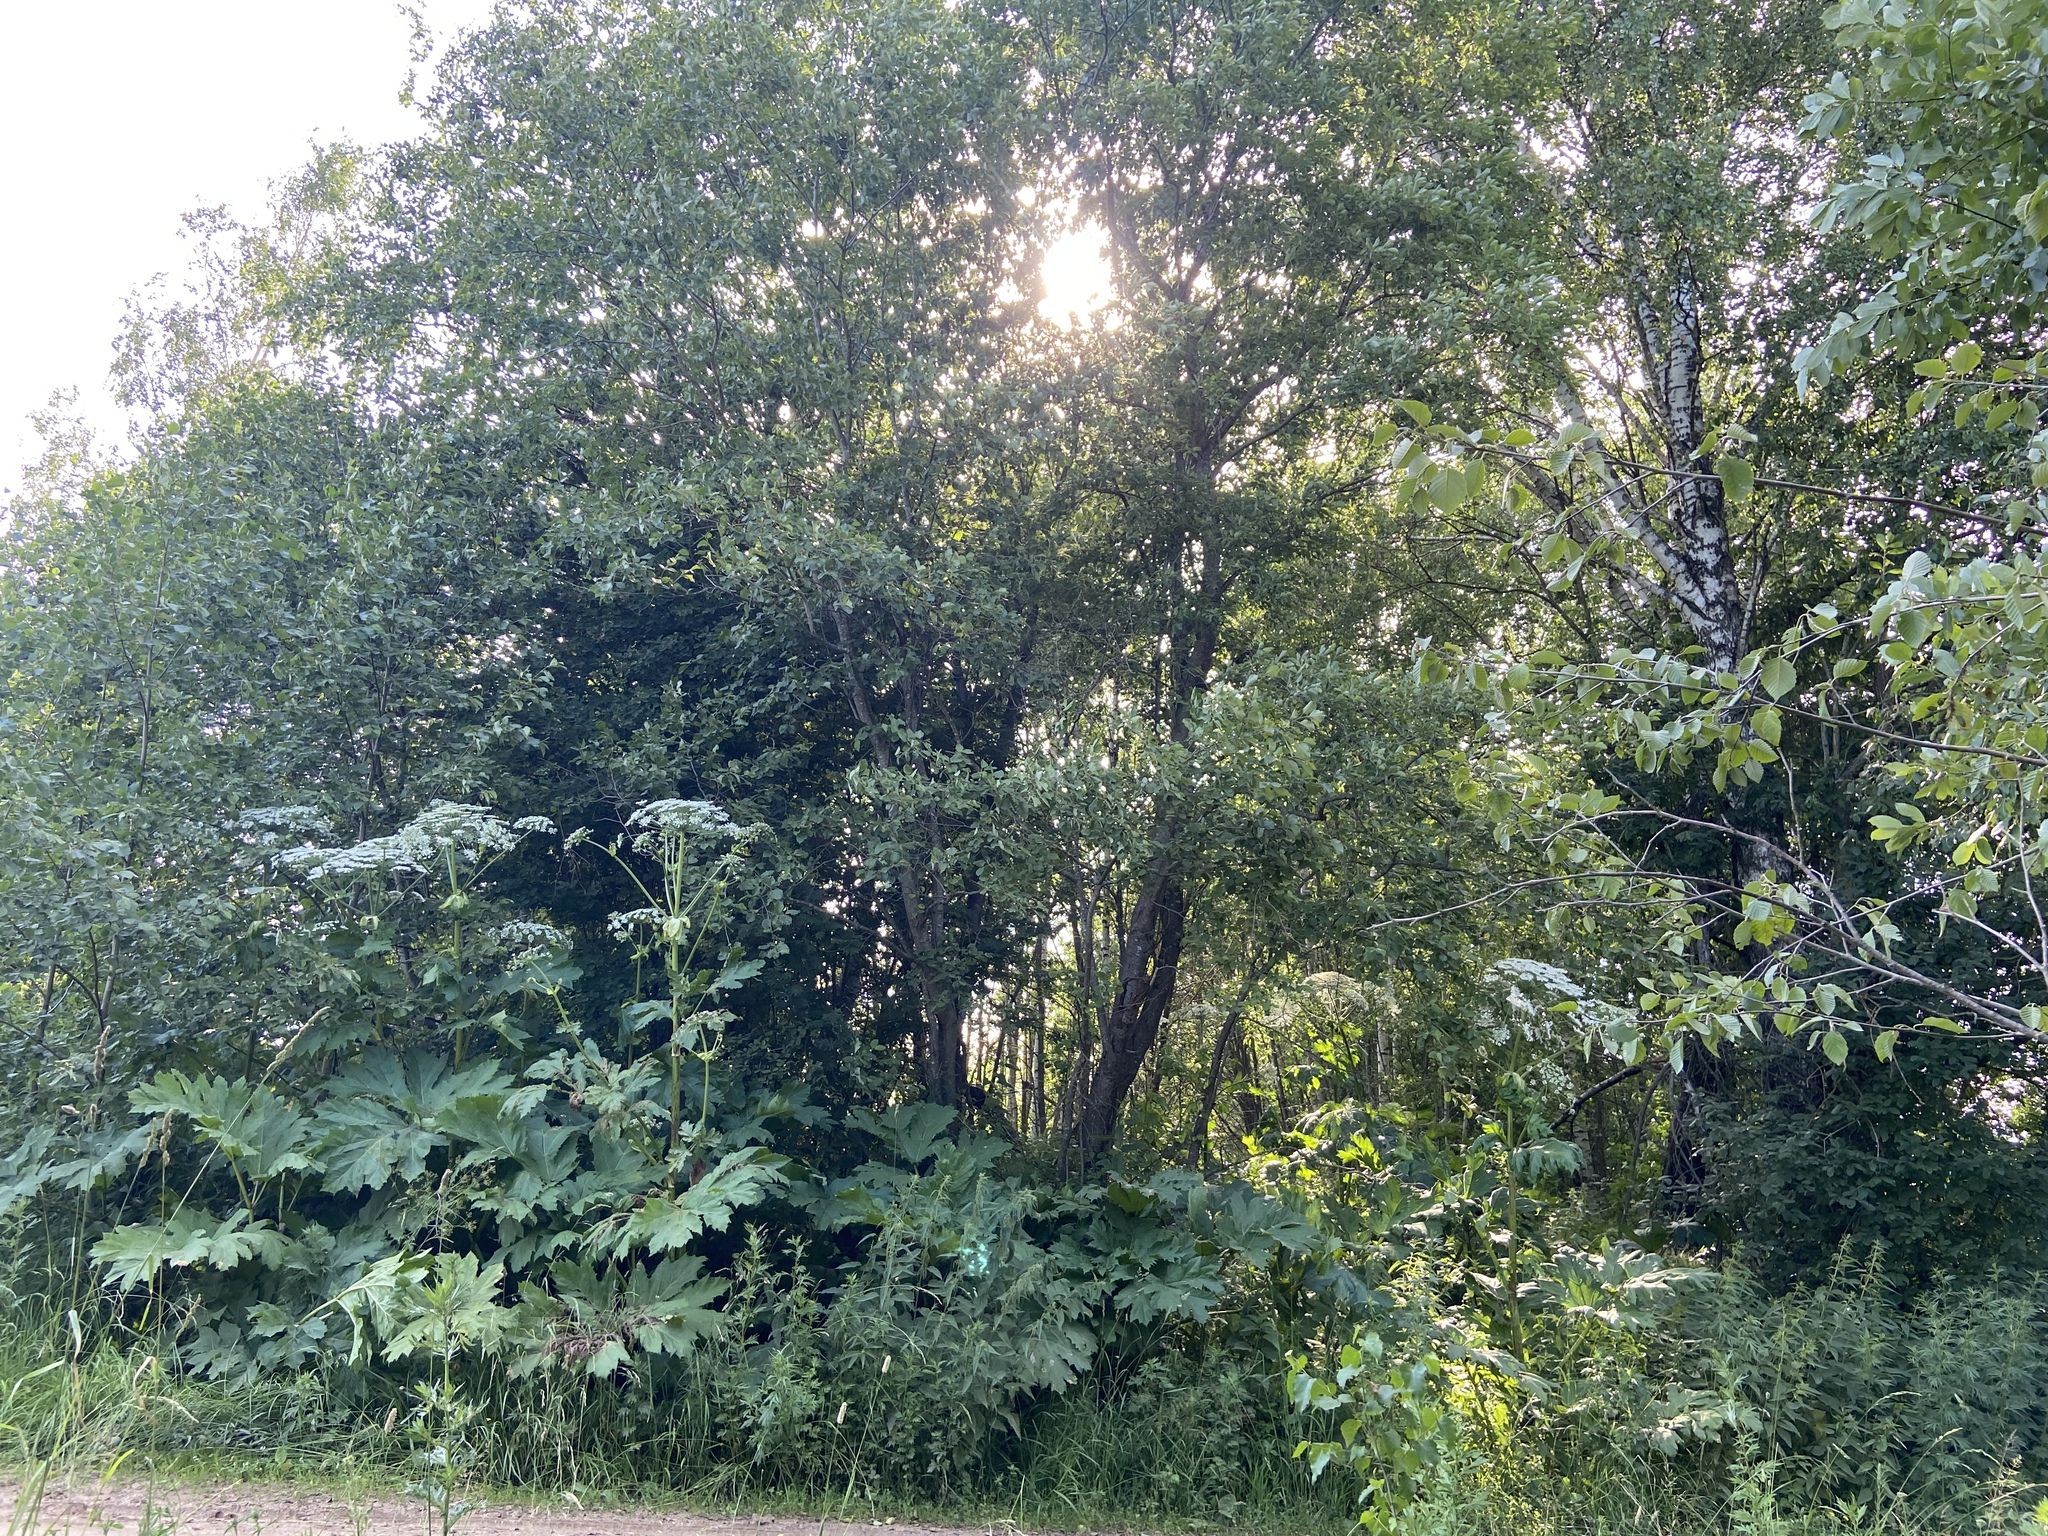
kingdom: Plantae
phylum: Tracheophyta
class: Magnoliopsida
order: Apiales
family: Apiaceae
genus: Heracleum
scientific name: Heracleum sosnowskyi
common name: Sosnowsky's hogweed
